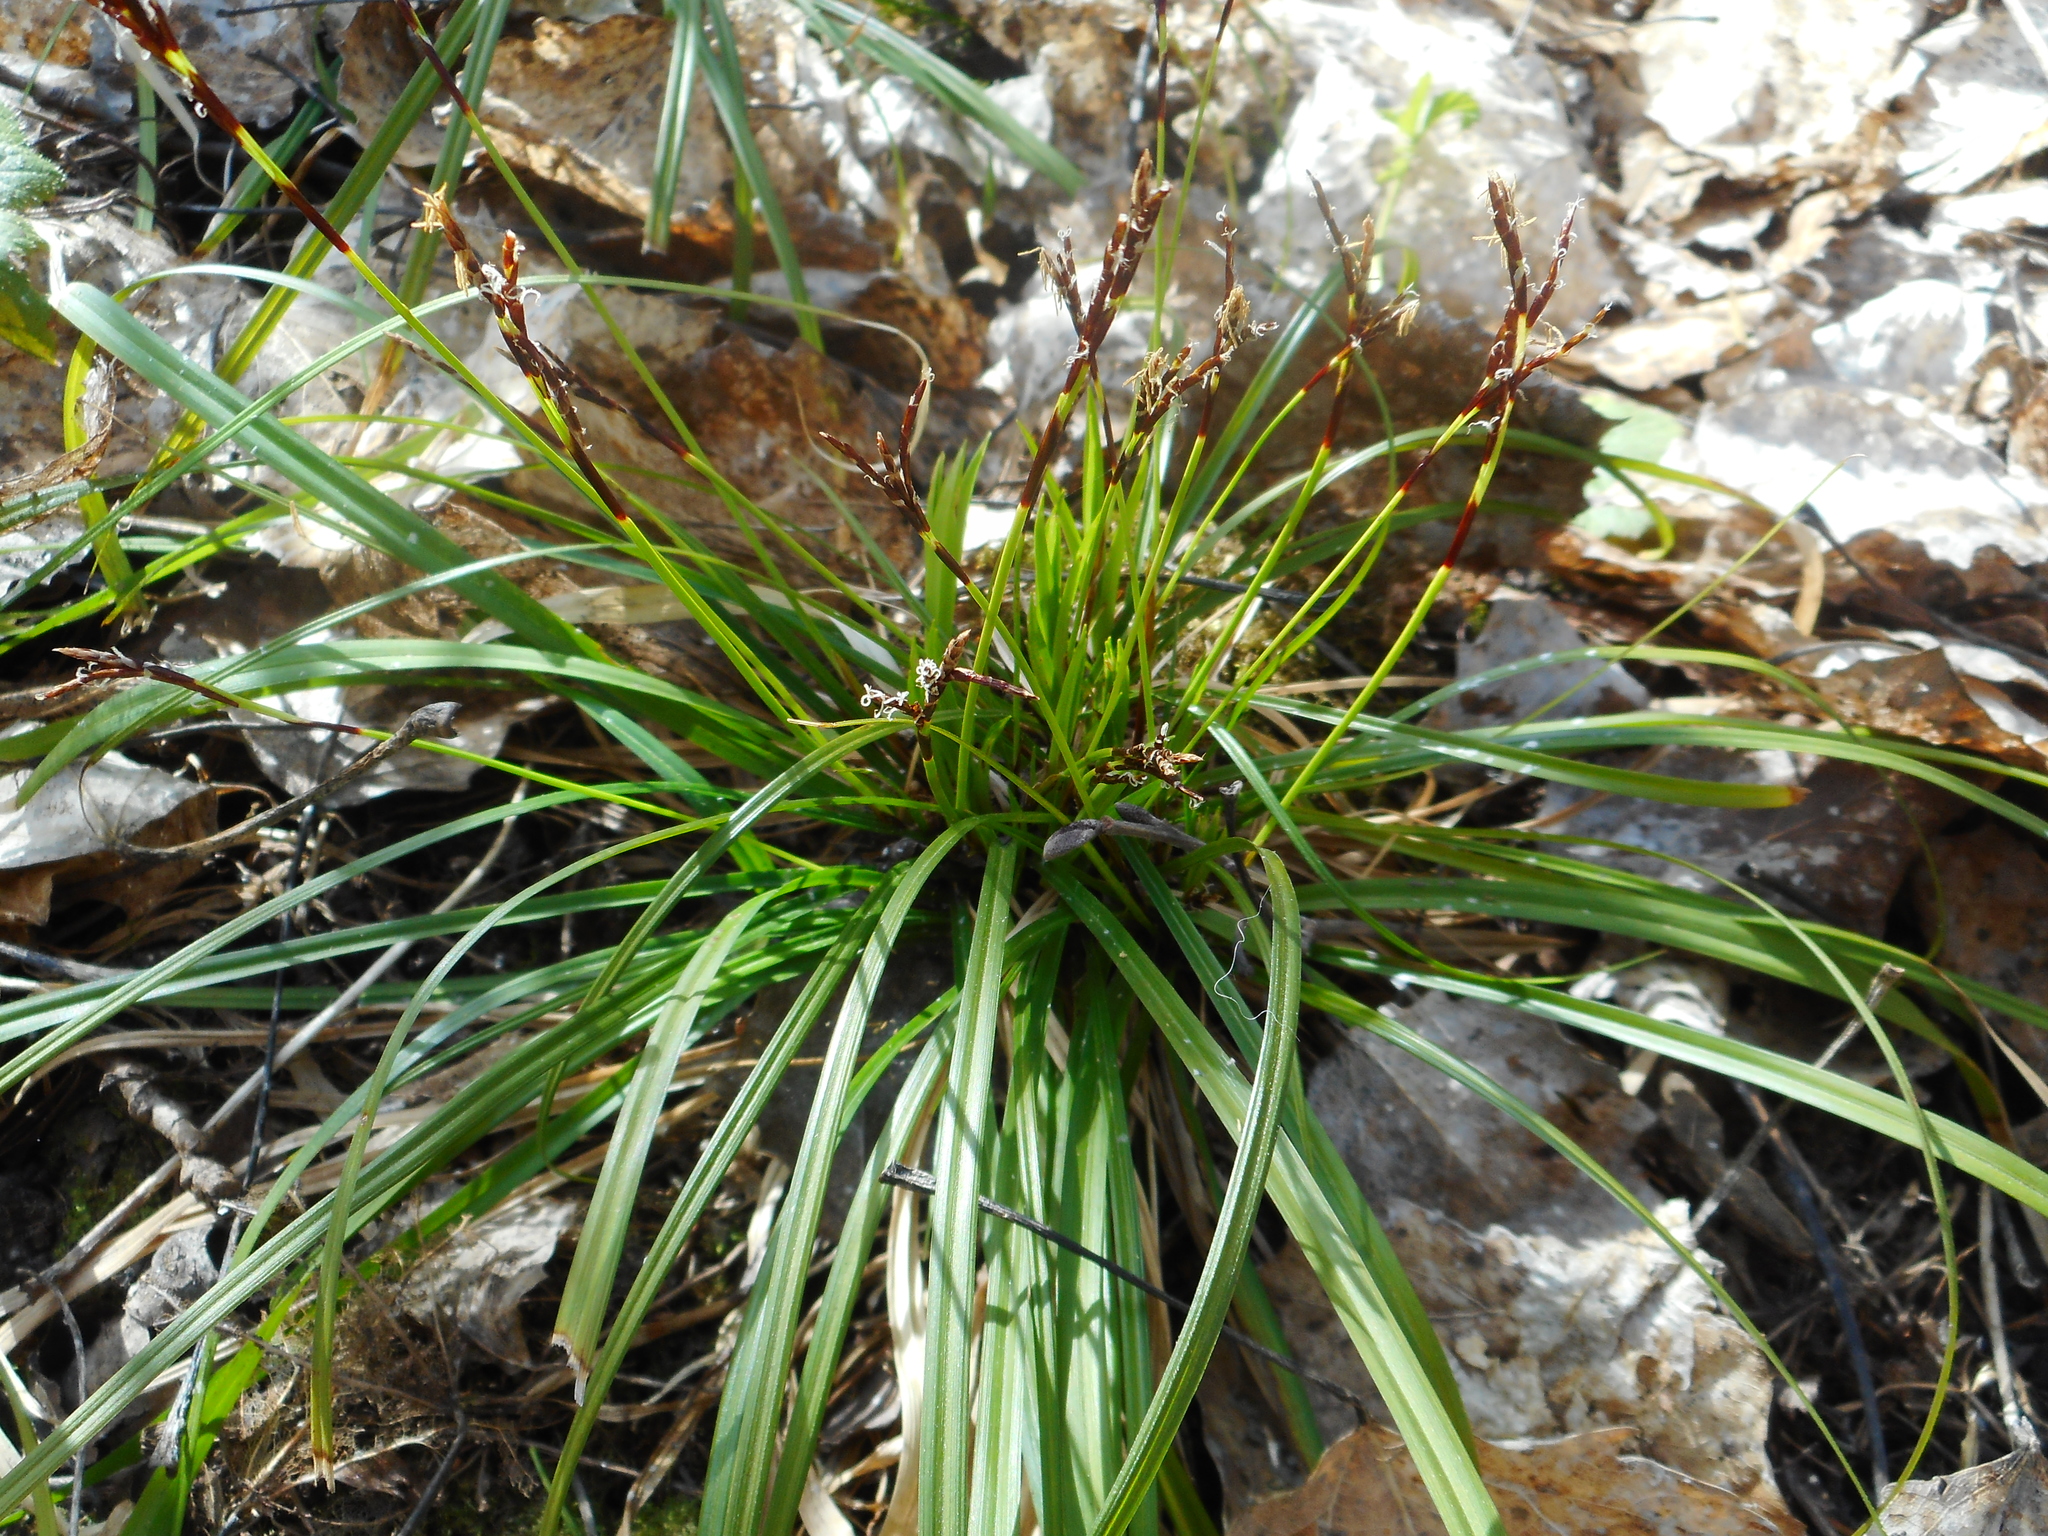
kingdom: Plantae
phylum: Tracheophyta
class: Liliopsida
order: Poales
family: Cyperaceae
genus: Carex
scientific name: Carex digitata
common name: Fingered sedge
